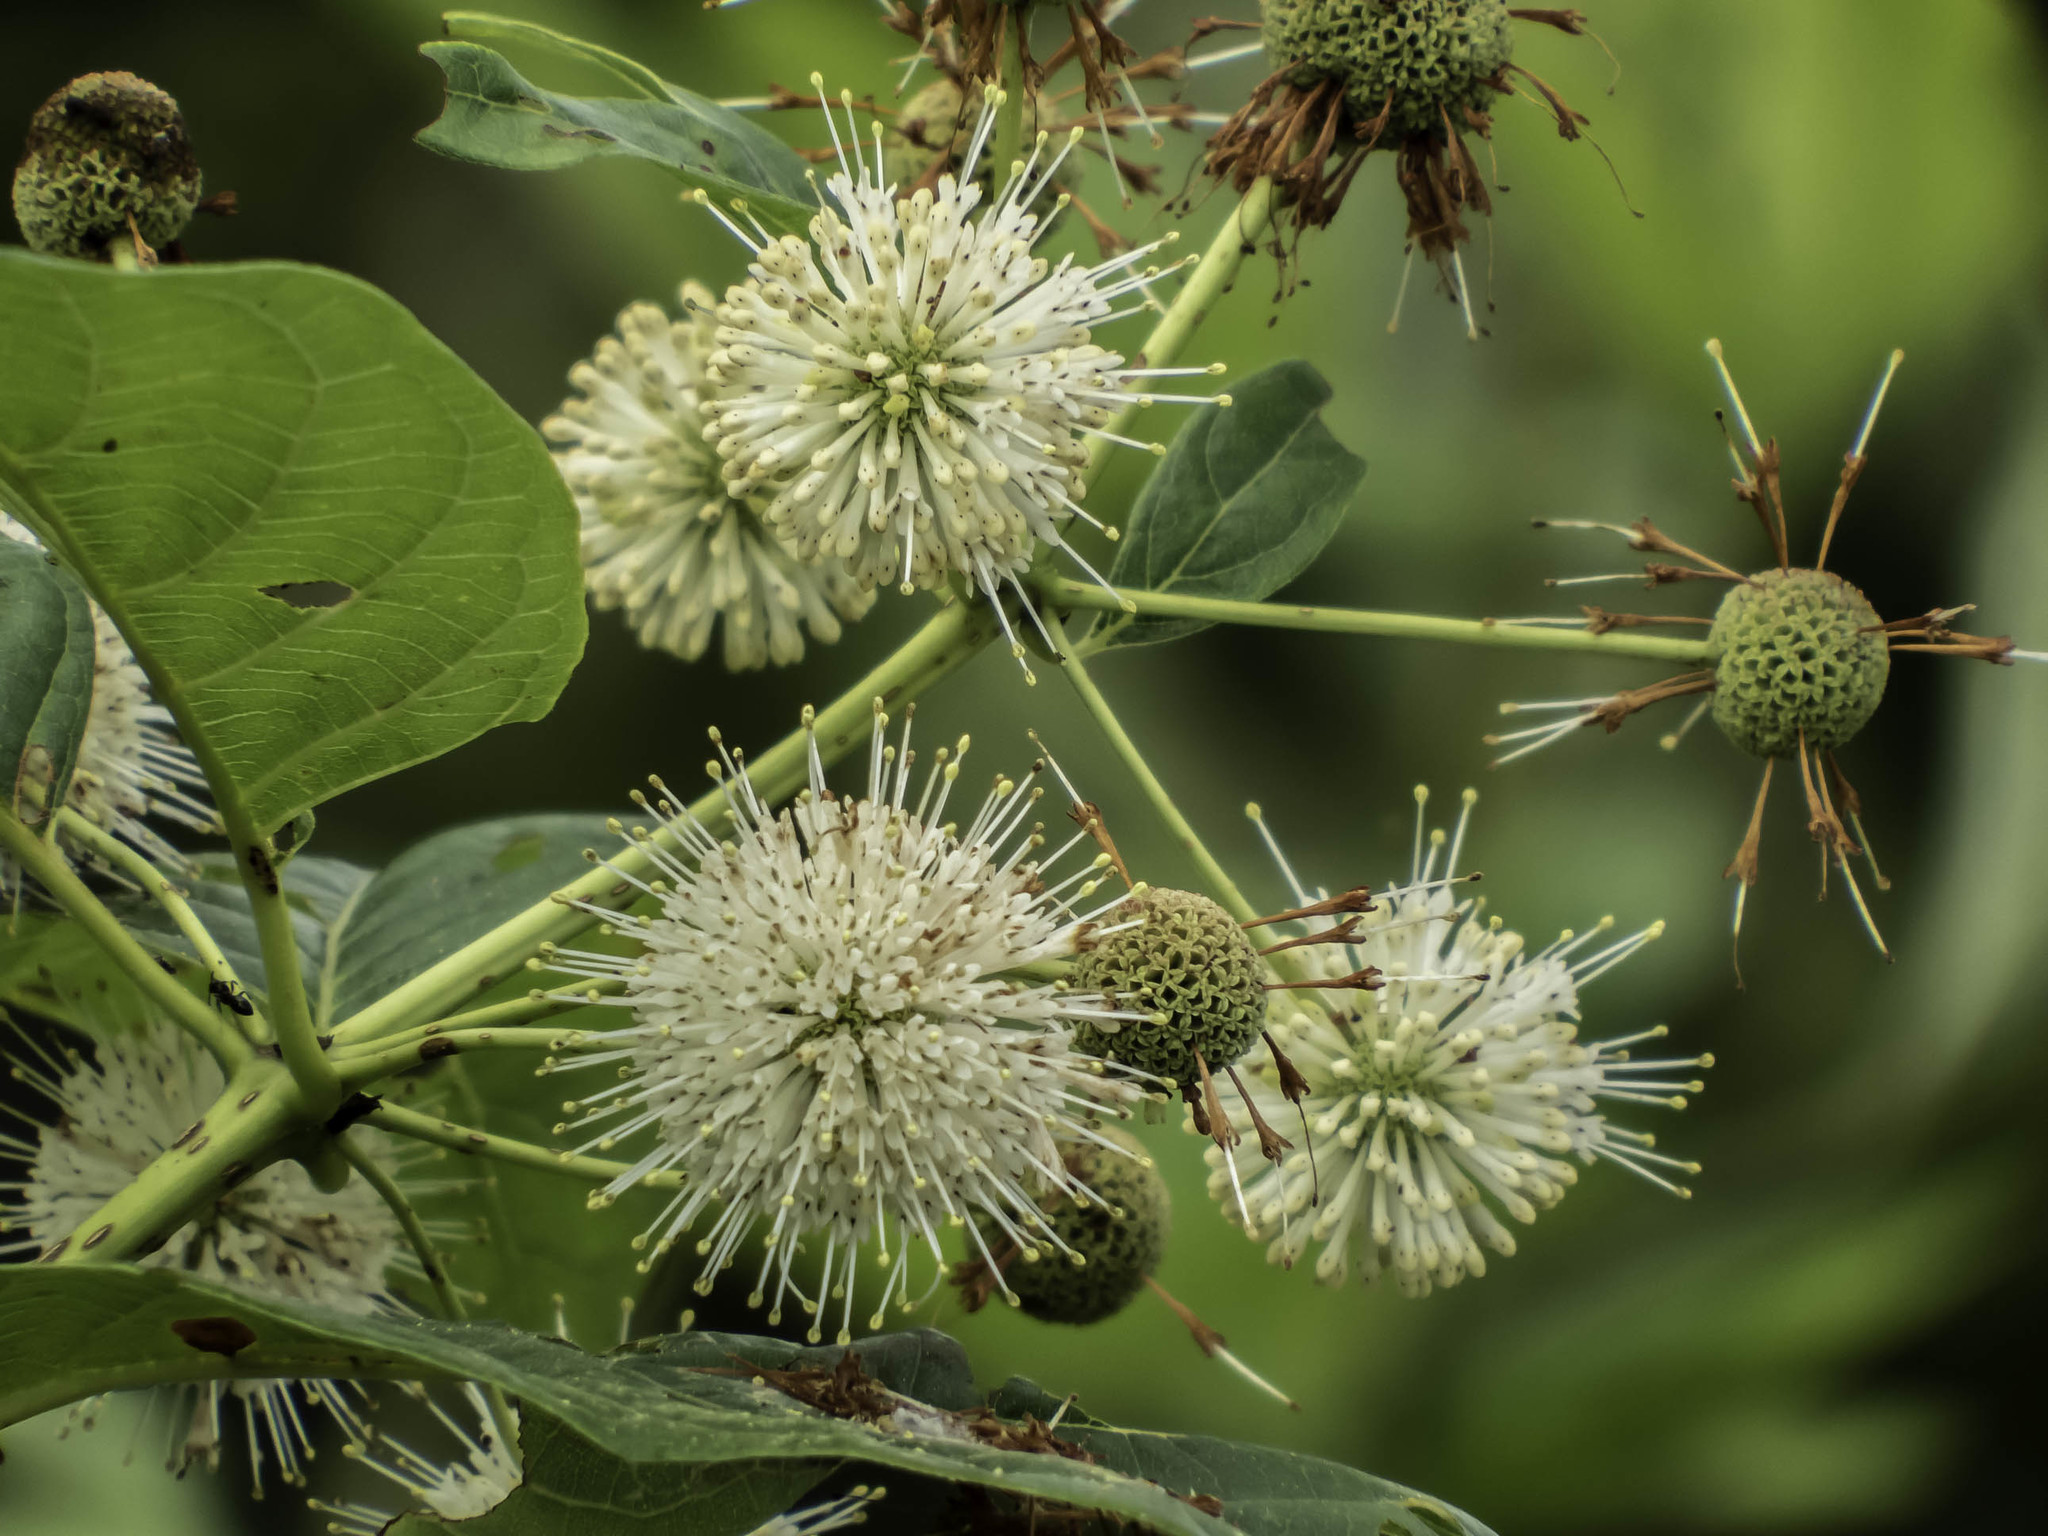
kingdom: Plantae
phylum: Tracheophyta
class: Magnoliopsida
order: Gentianales
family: Rubiaceae
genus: Cephalanthus
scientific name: Cephalanthus occidentalis
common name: Button-willow
